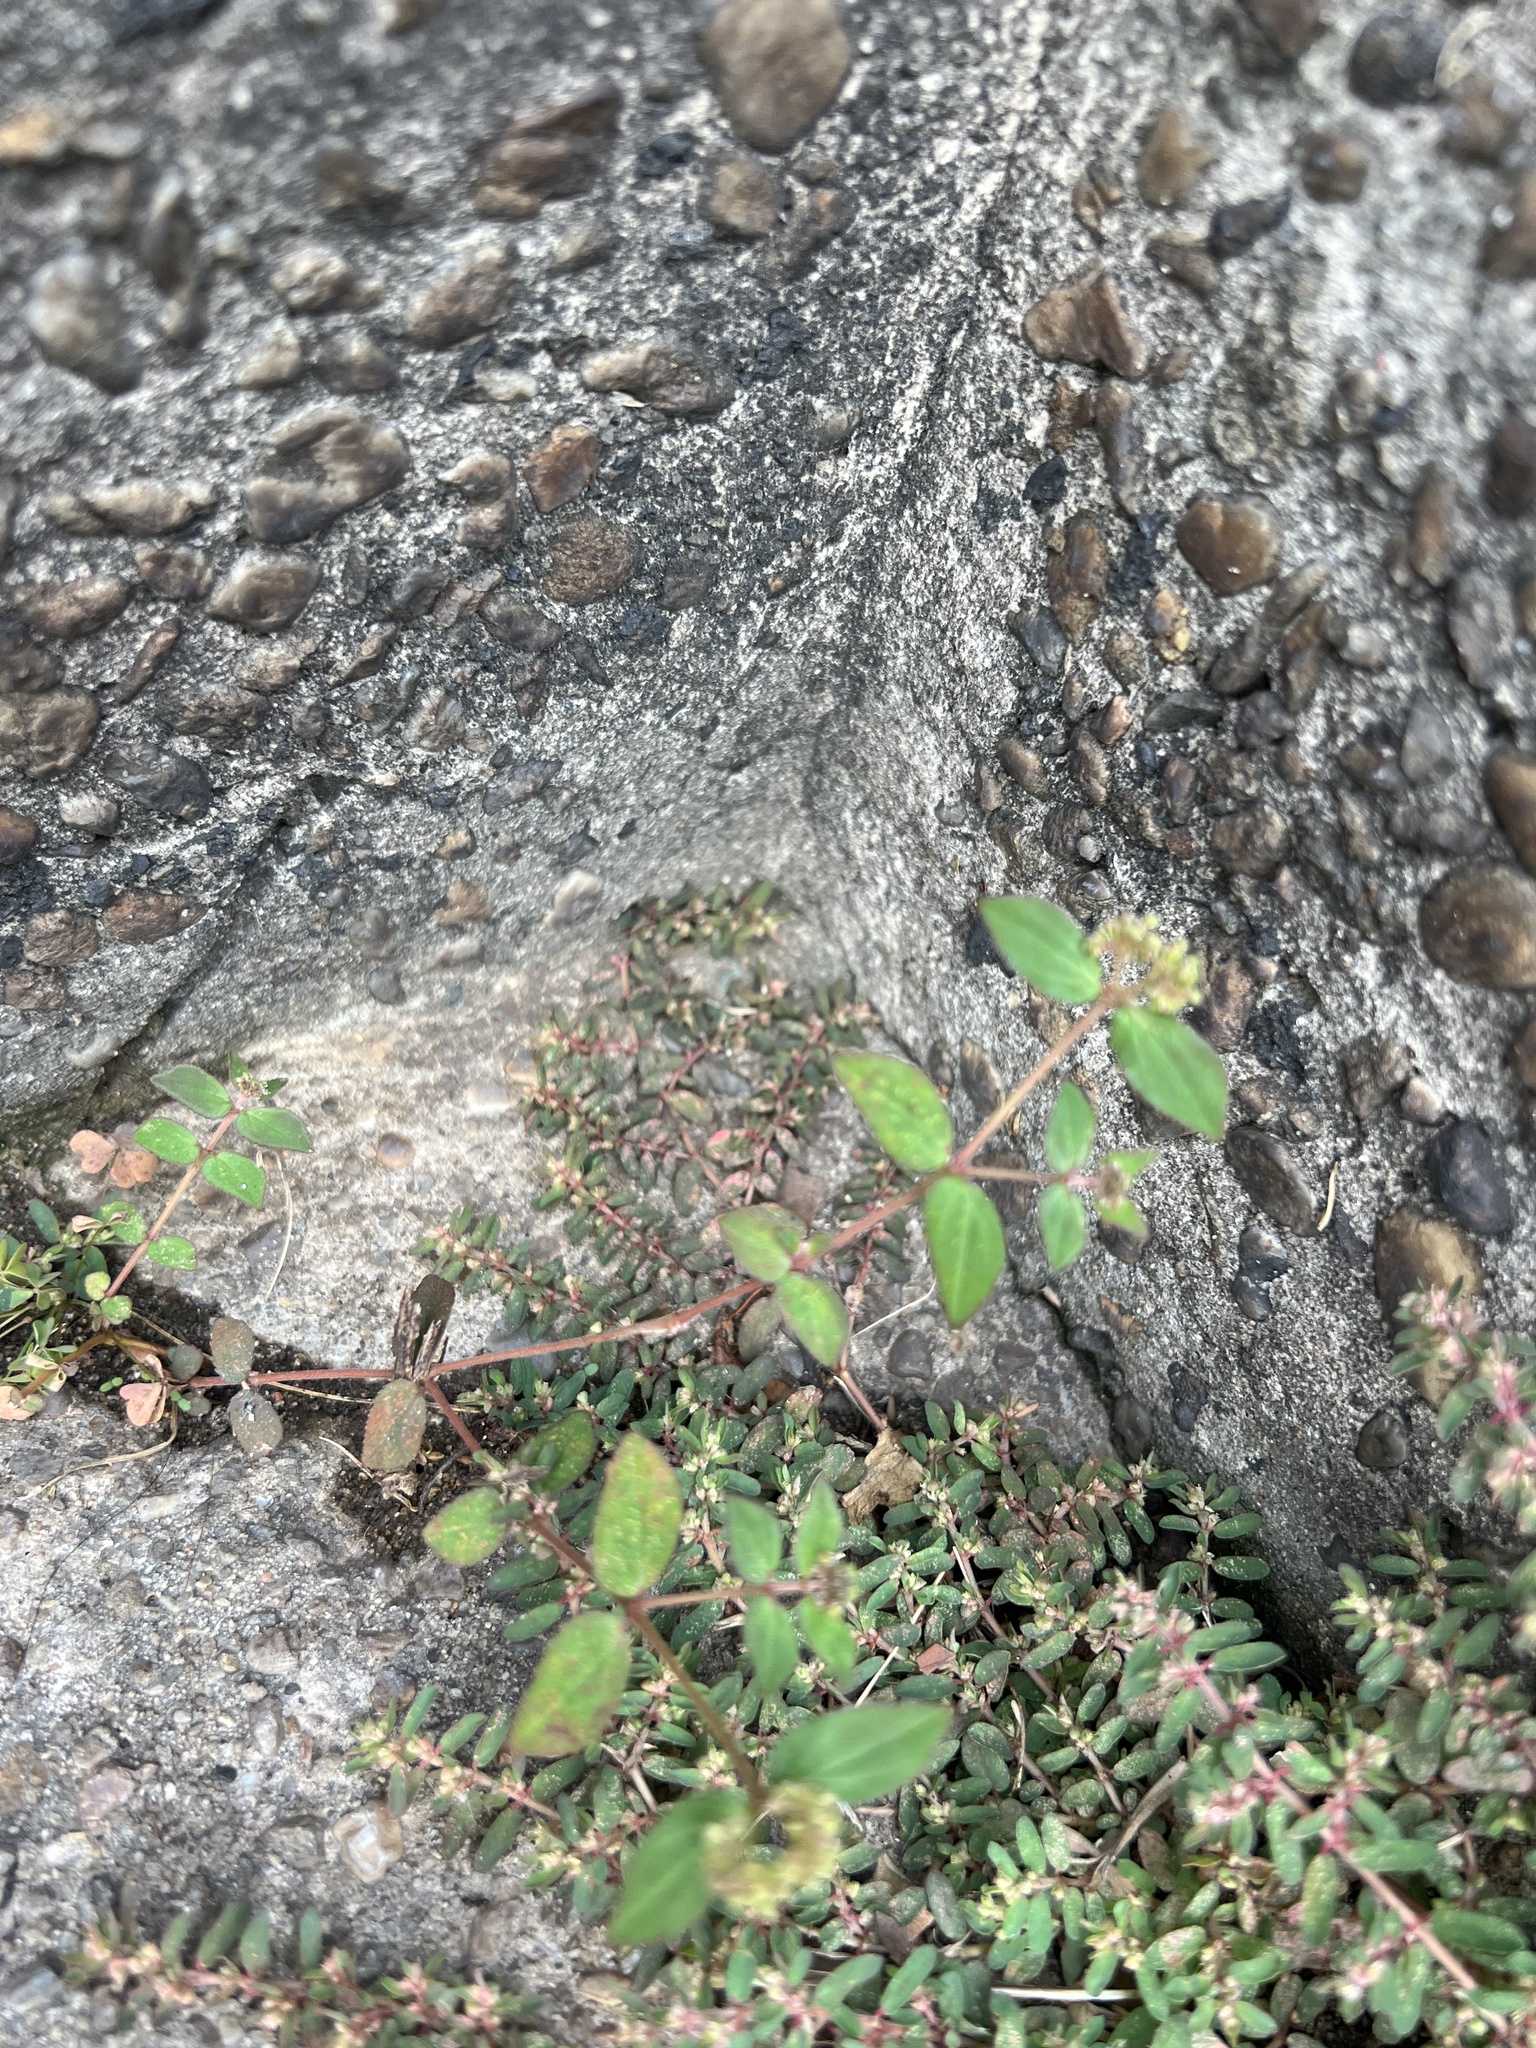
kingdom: Plantae
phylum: Tracheophyta
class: Magnoliopsida
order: Malpighiales
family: Euphorbiaceae
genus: Euphorbia
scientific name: Euphorbia ophthalmica
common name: Florida hammock sandmat
